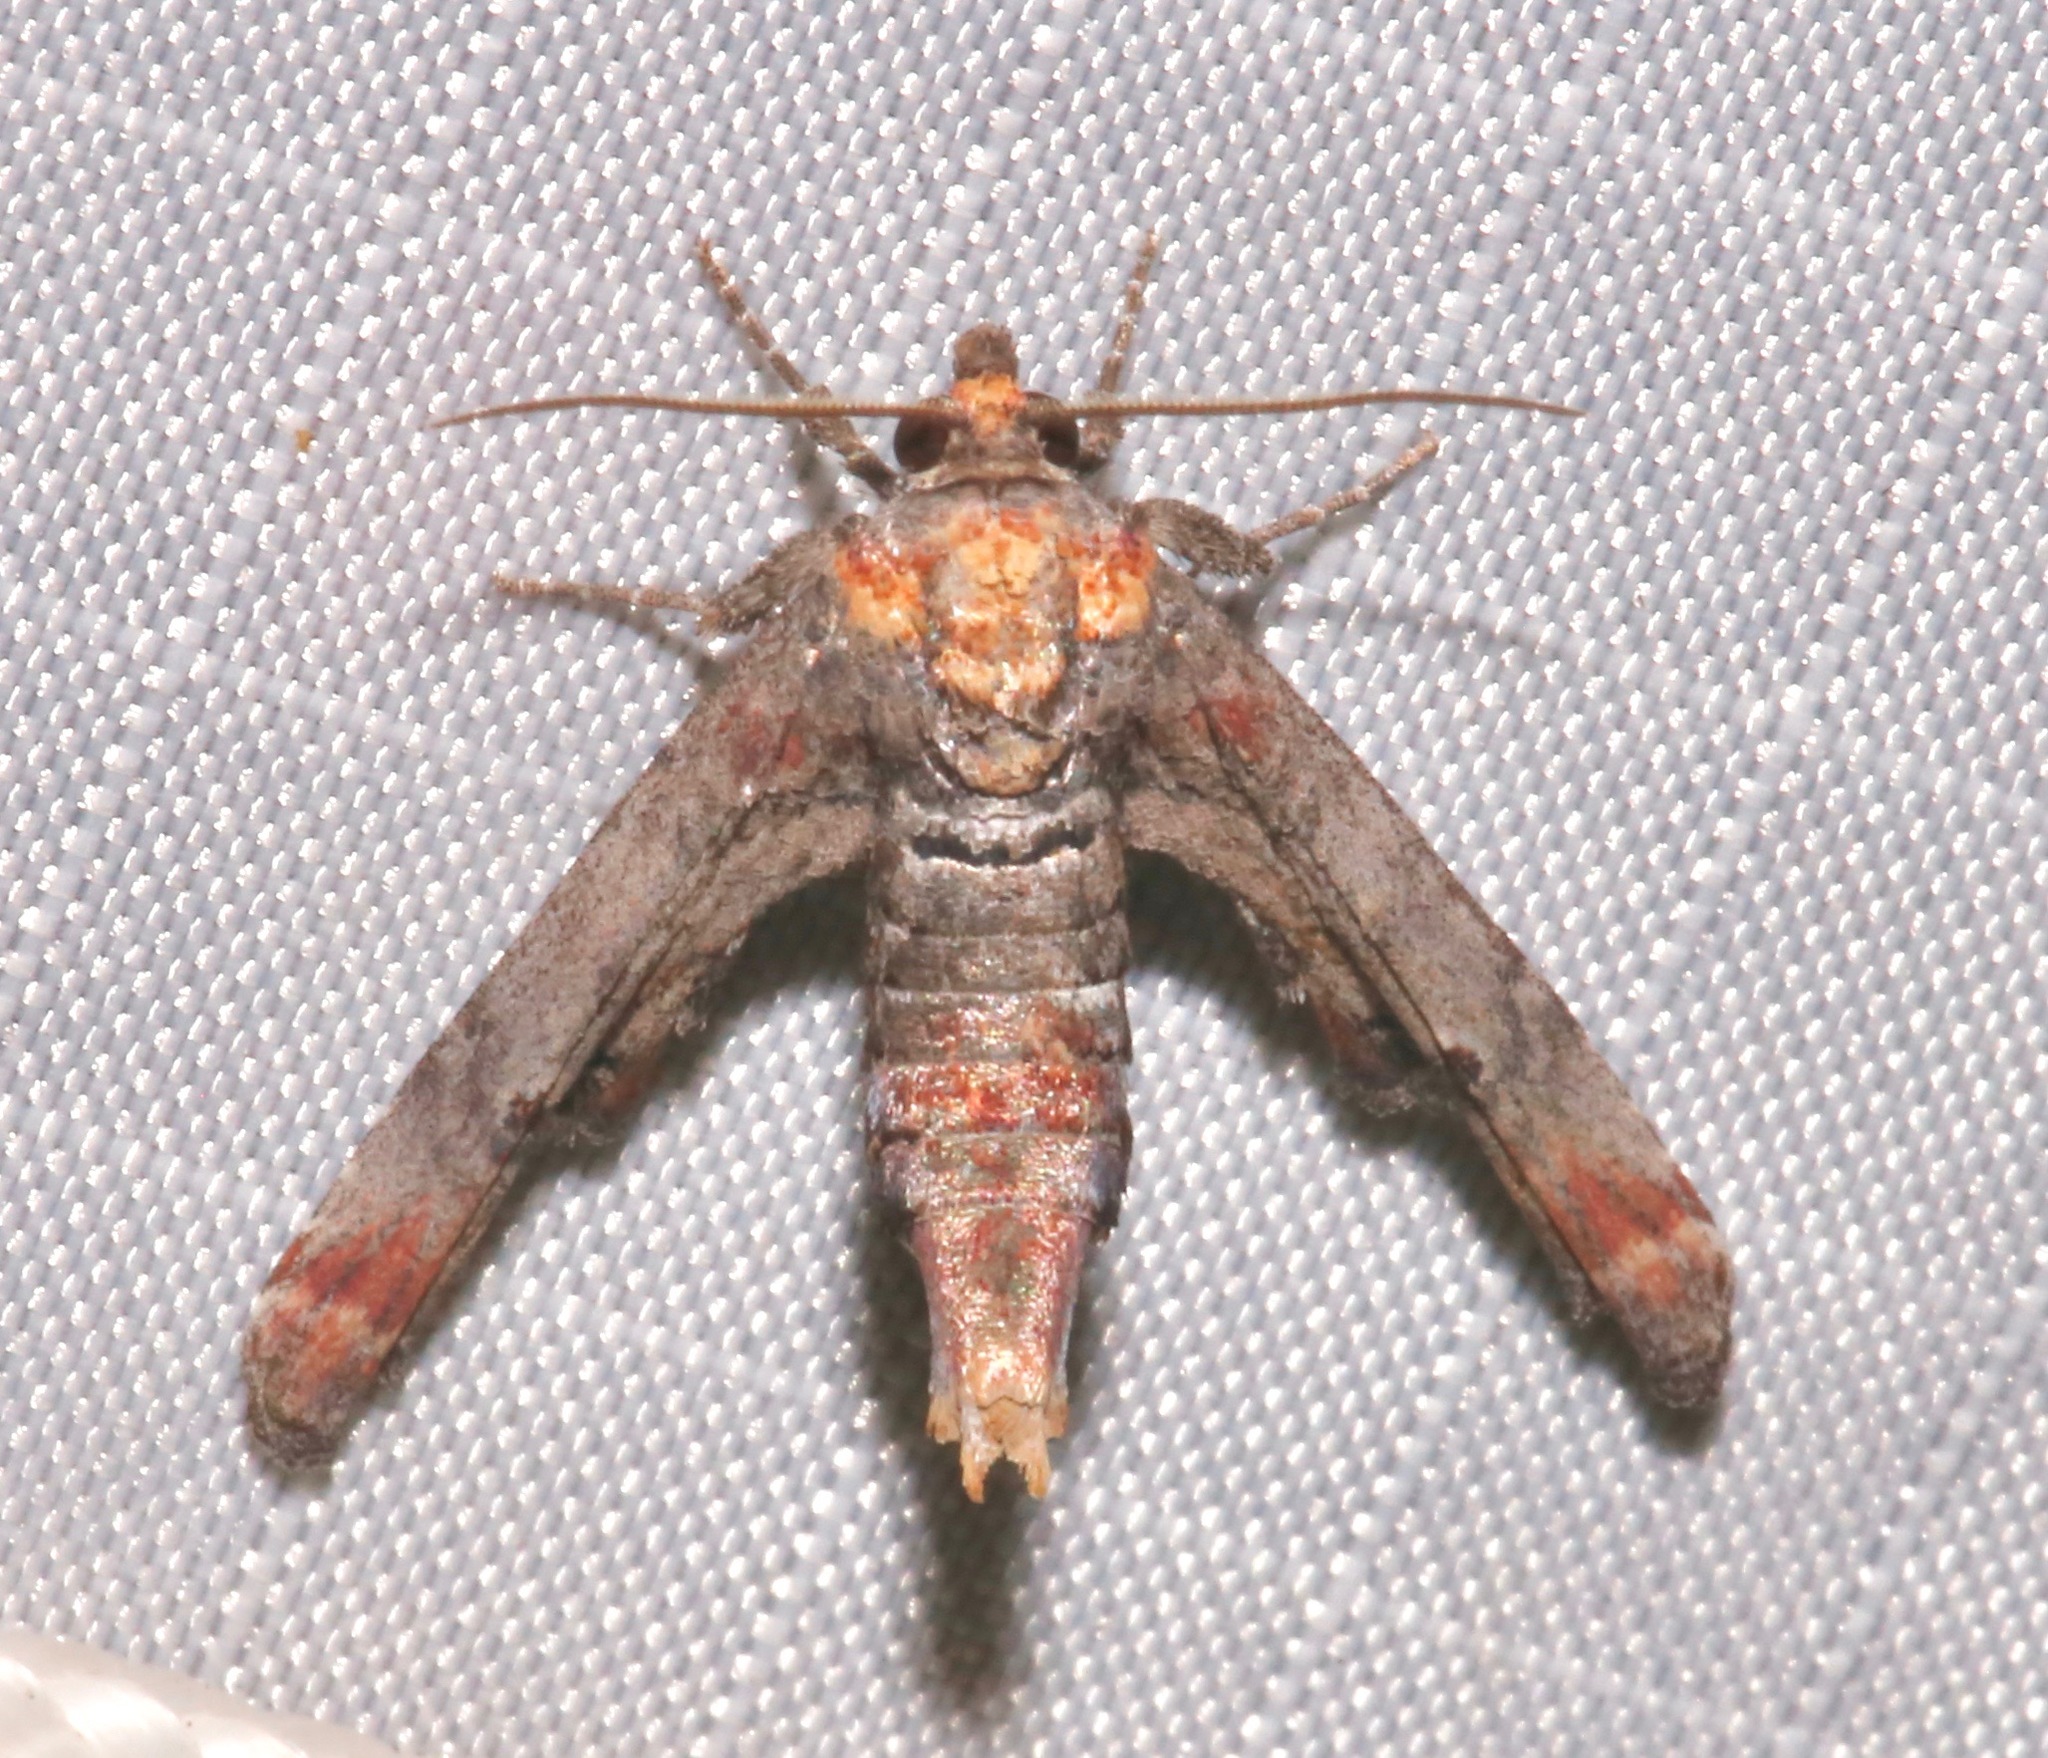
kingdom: Animalia
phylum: Arthropoda
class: Insecta
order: Lepidoptera
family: Euteliidae
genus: Marathyssa
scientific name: Marathyssa inficita
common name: Dark marathyssa moth
